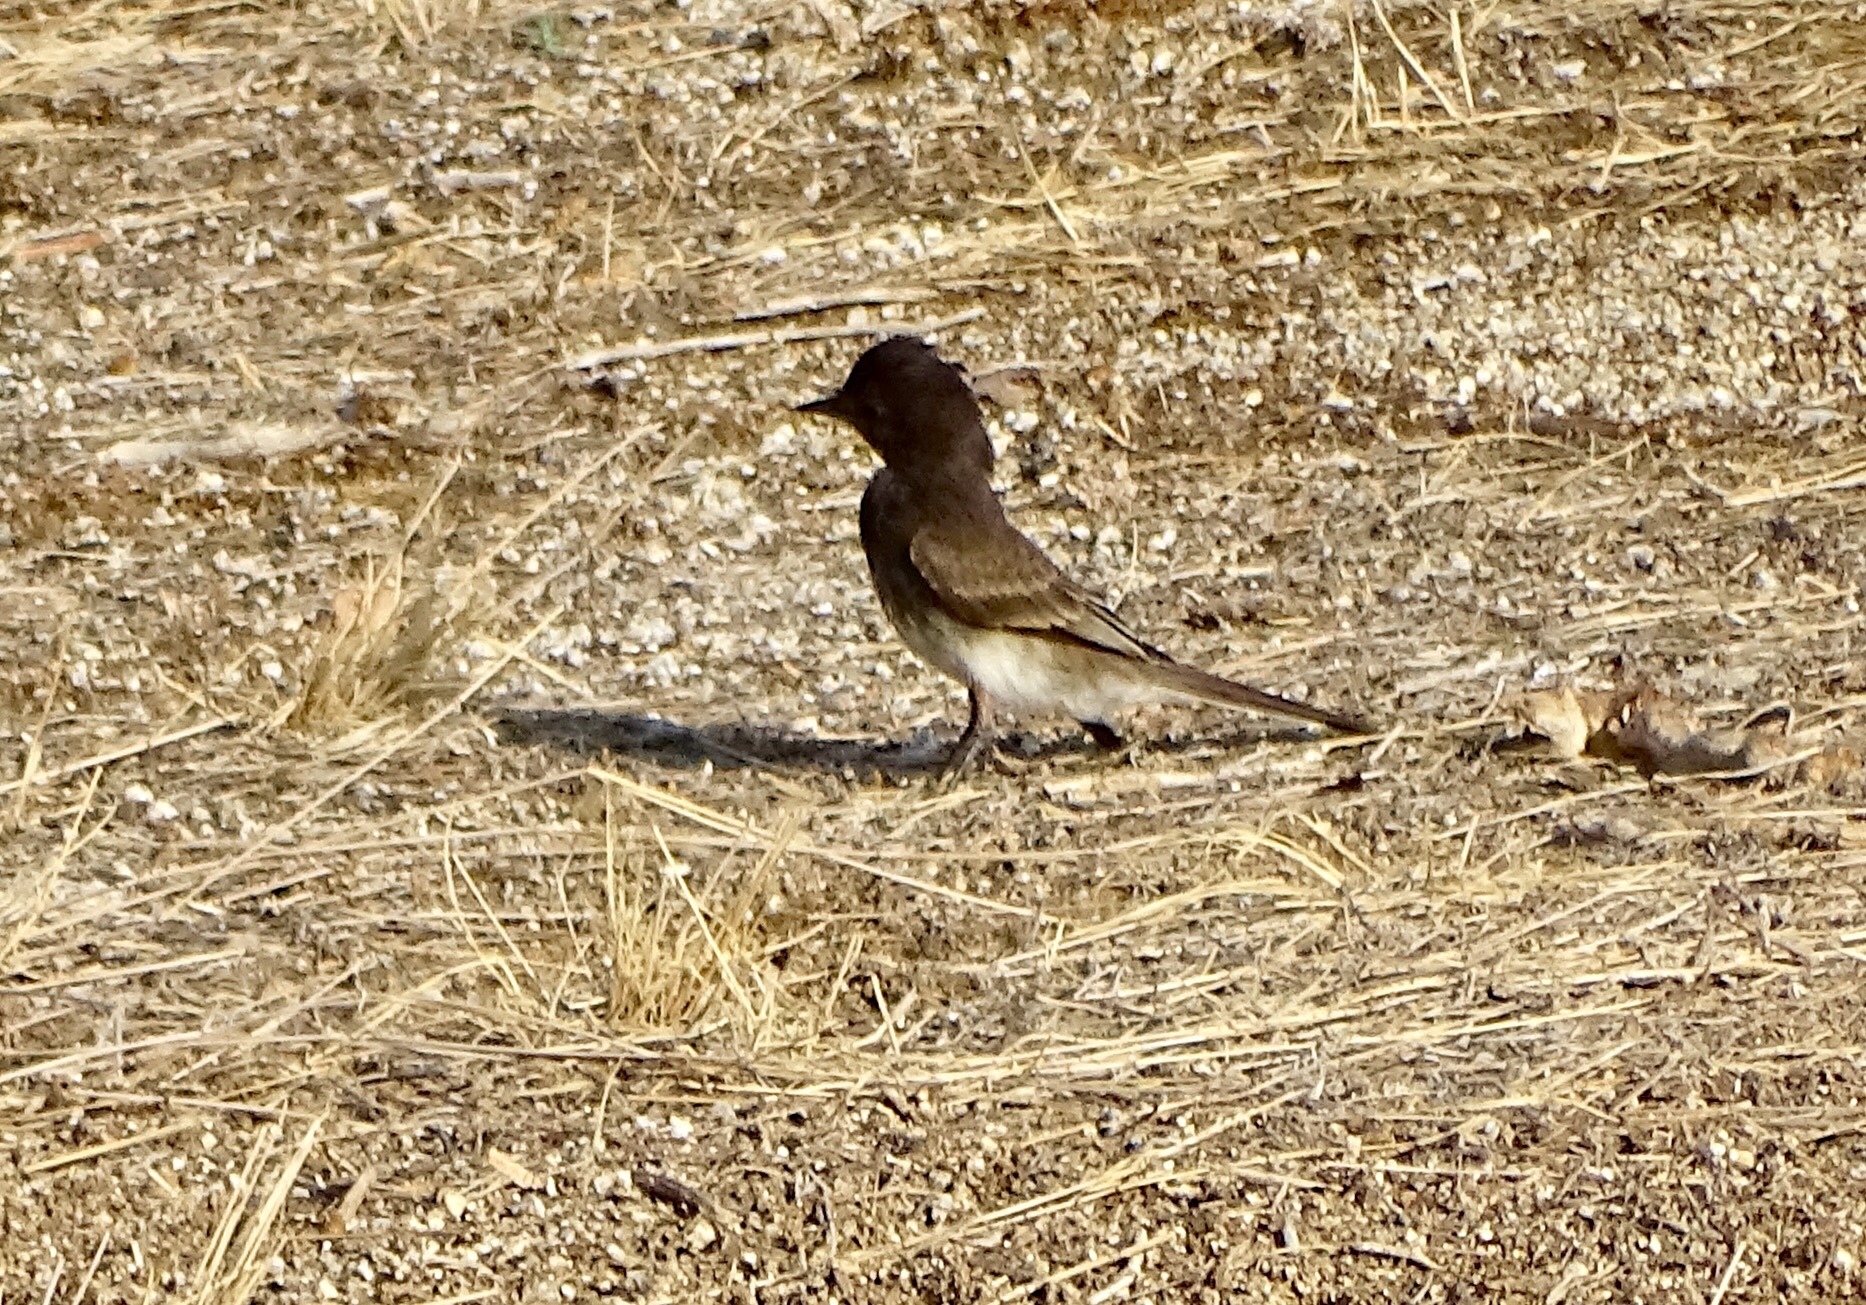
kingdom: Animalia
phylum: Chordata
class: Aves
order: Passeriformes
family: Tyrannidae
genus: Sayornis
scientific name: Sayornis nigricans
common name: Black phoebe
